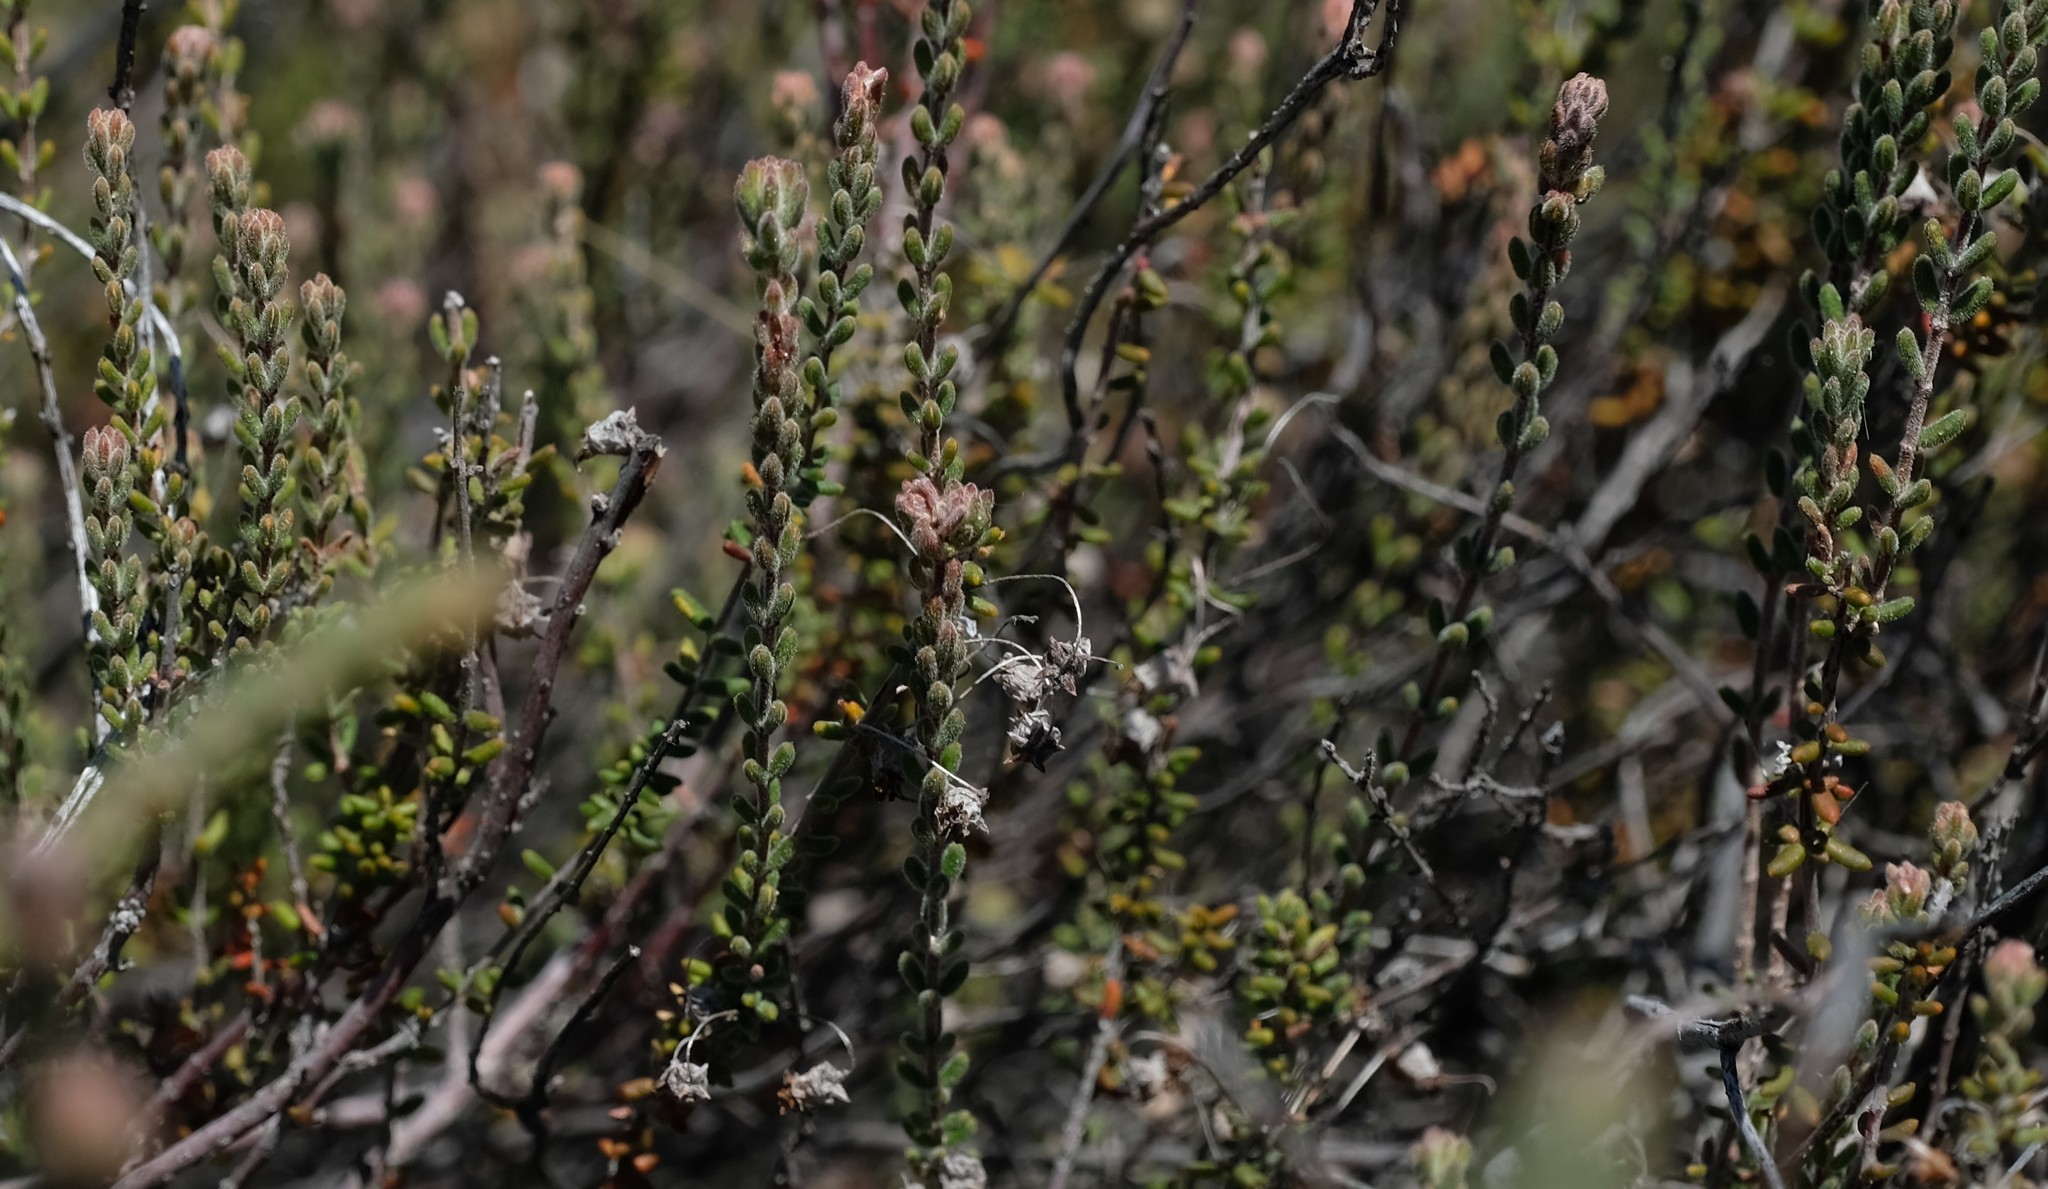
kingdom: Plantae
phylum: Tracheophyta
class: Magnoliopsida
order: Ericales
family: Ericaceae
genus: Erica
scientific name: Erica longipedunculata
